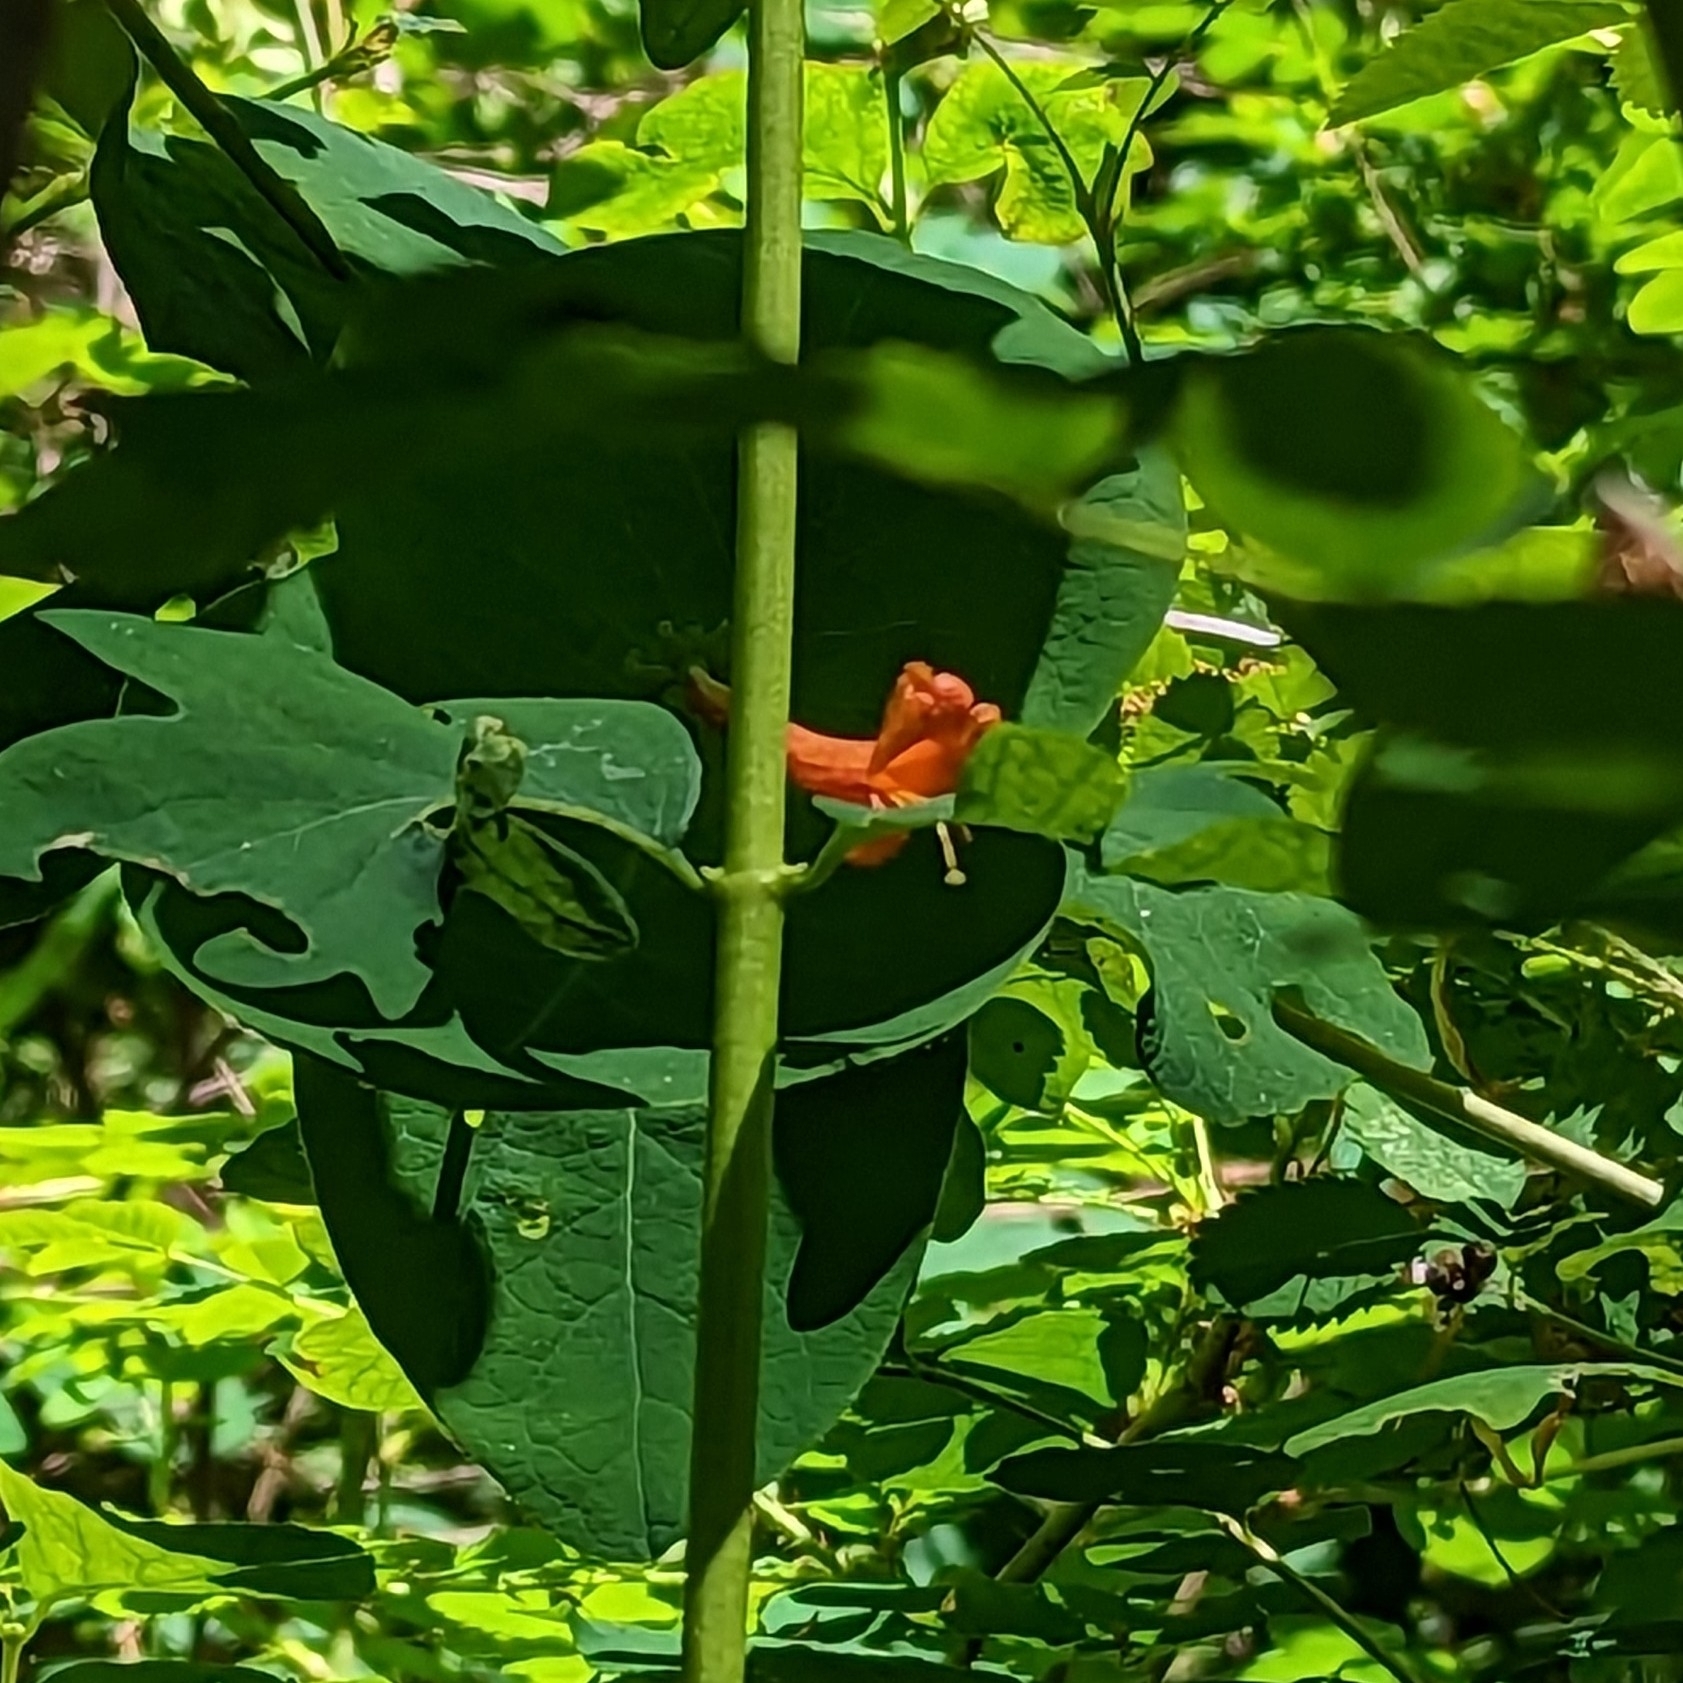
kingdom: Plantae
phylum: Tracheophyta
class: Magnoliopsida
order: Dipsacales
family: Caprifoliaceae
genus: Lonicera
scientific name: Lonicera ciliosa
